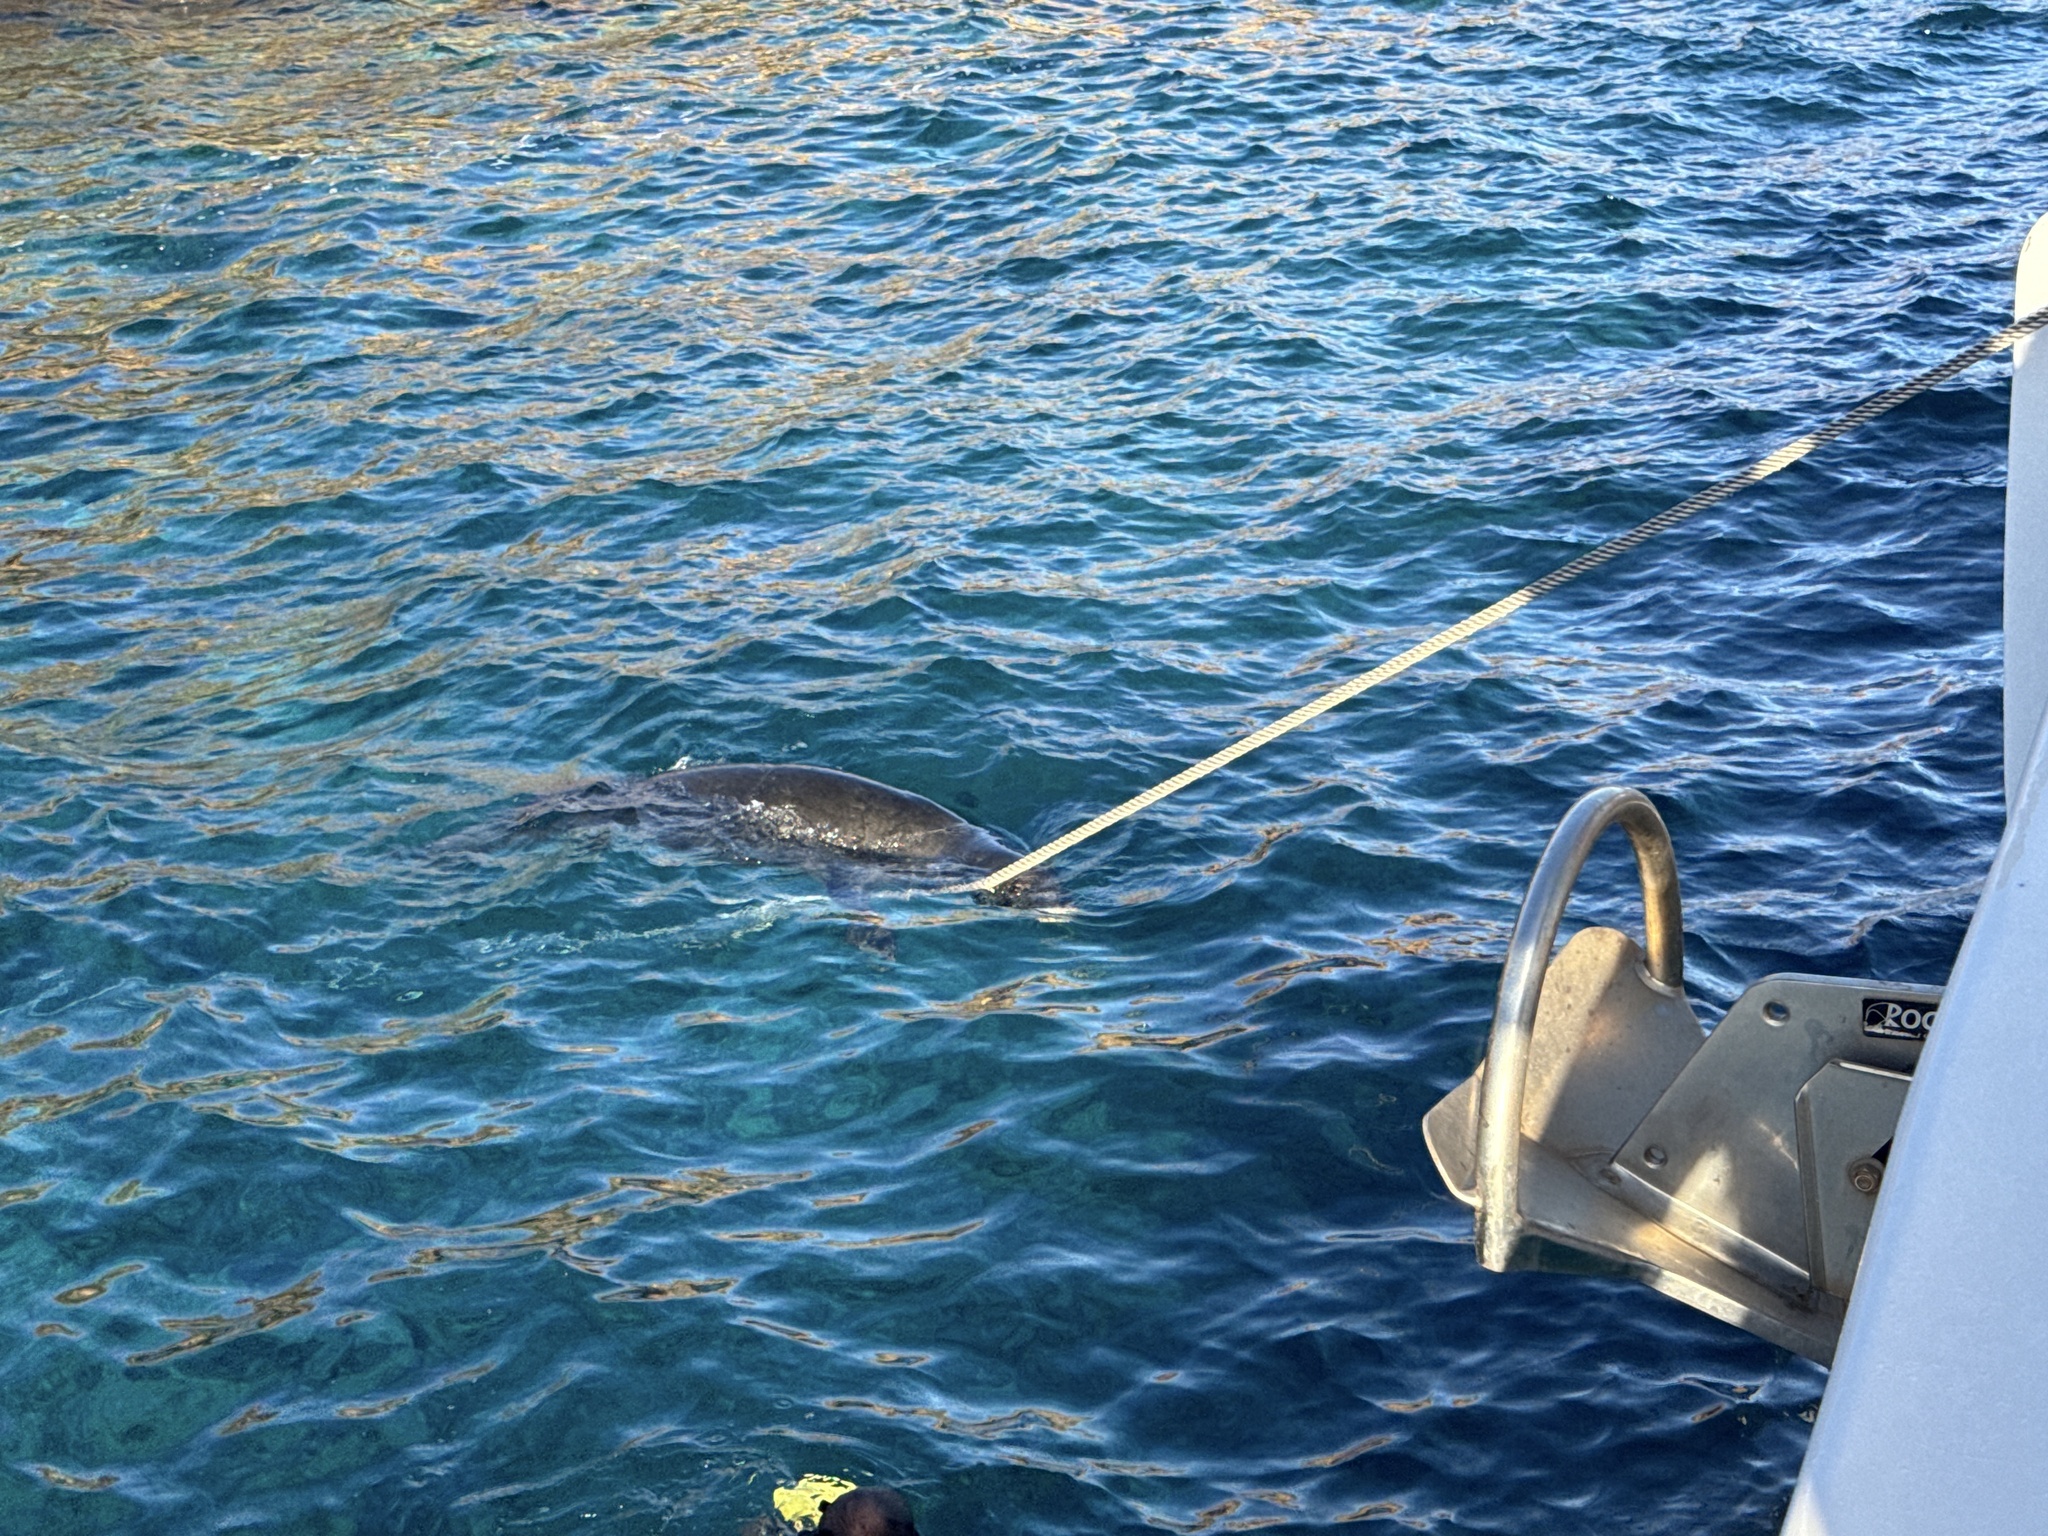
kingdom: Animalia
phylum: Chordata
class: Mammalia
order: Carnivora
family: Phocidae
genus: Neomonachus
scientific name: Neomonachus schauinslandi
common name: Hawaiian monk seal
